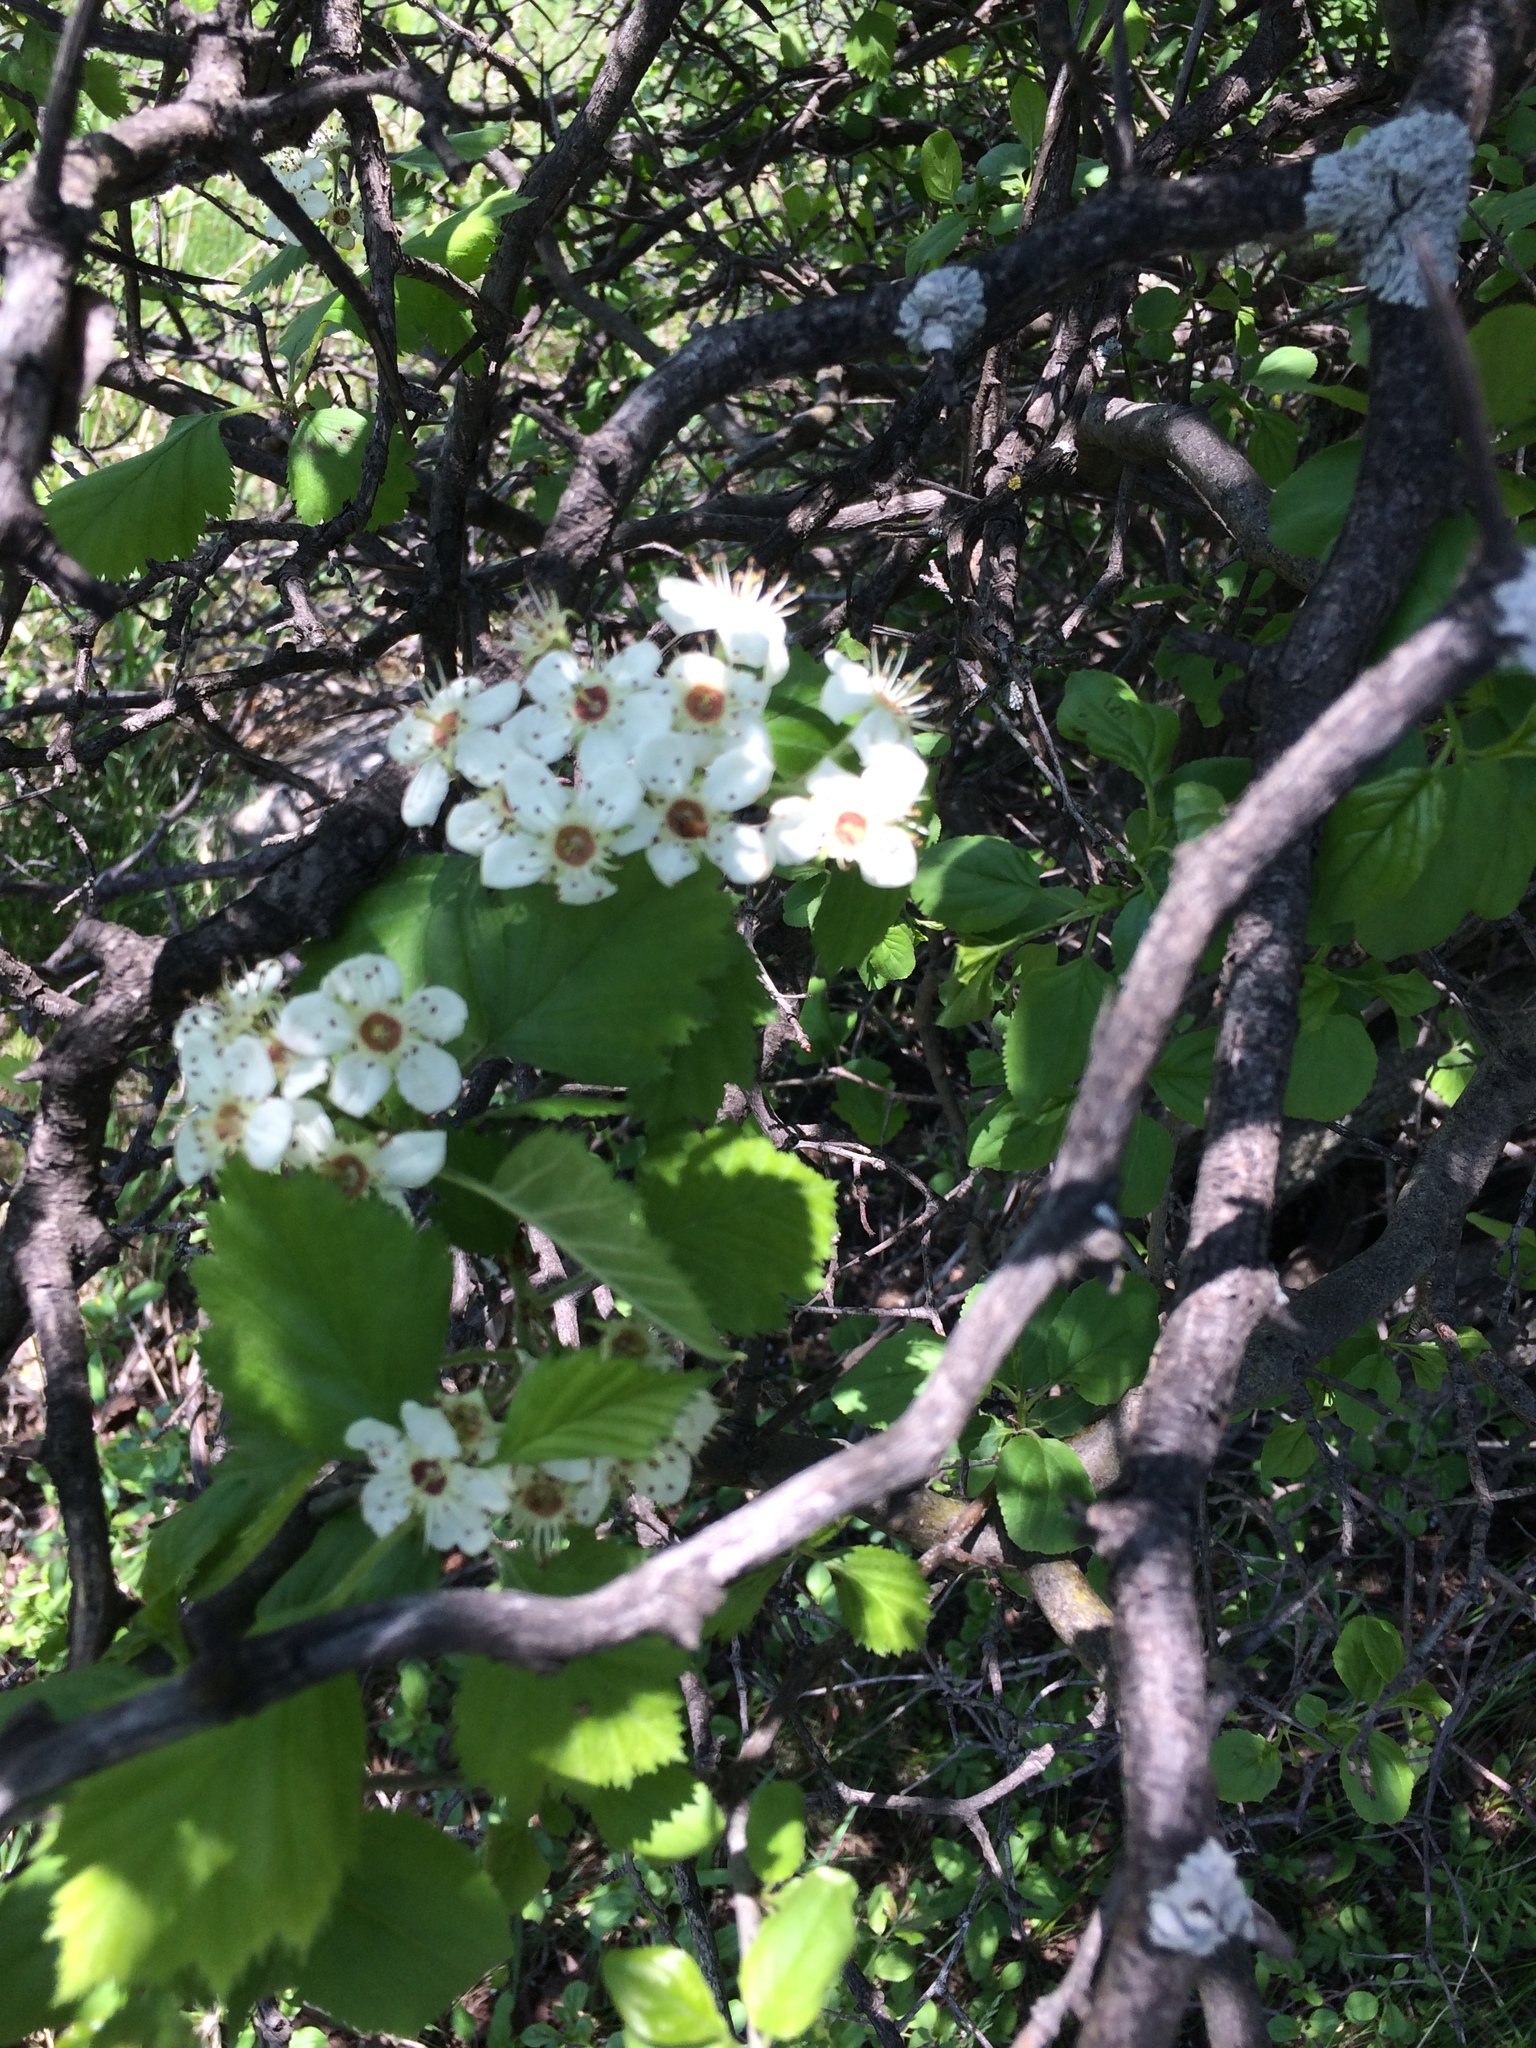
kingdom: Plantae
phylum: Tracheophyta
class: Magnoliopsida
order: Rosales
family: Rosaceae
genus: Crataegus
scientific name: Crataegus submollis
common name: Hairy cockspurthorn
